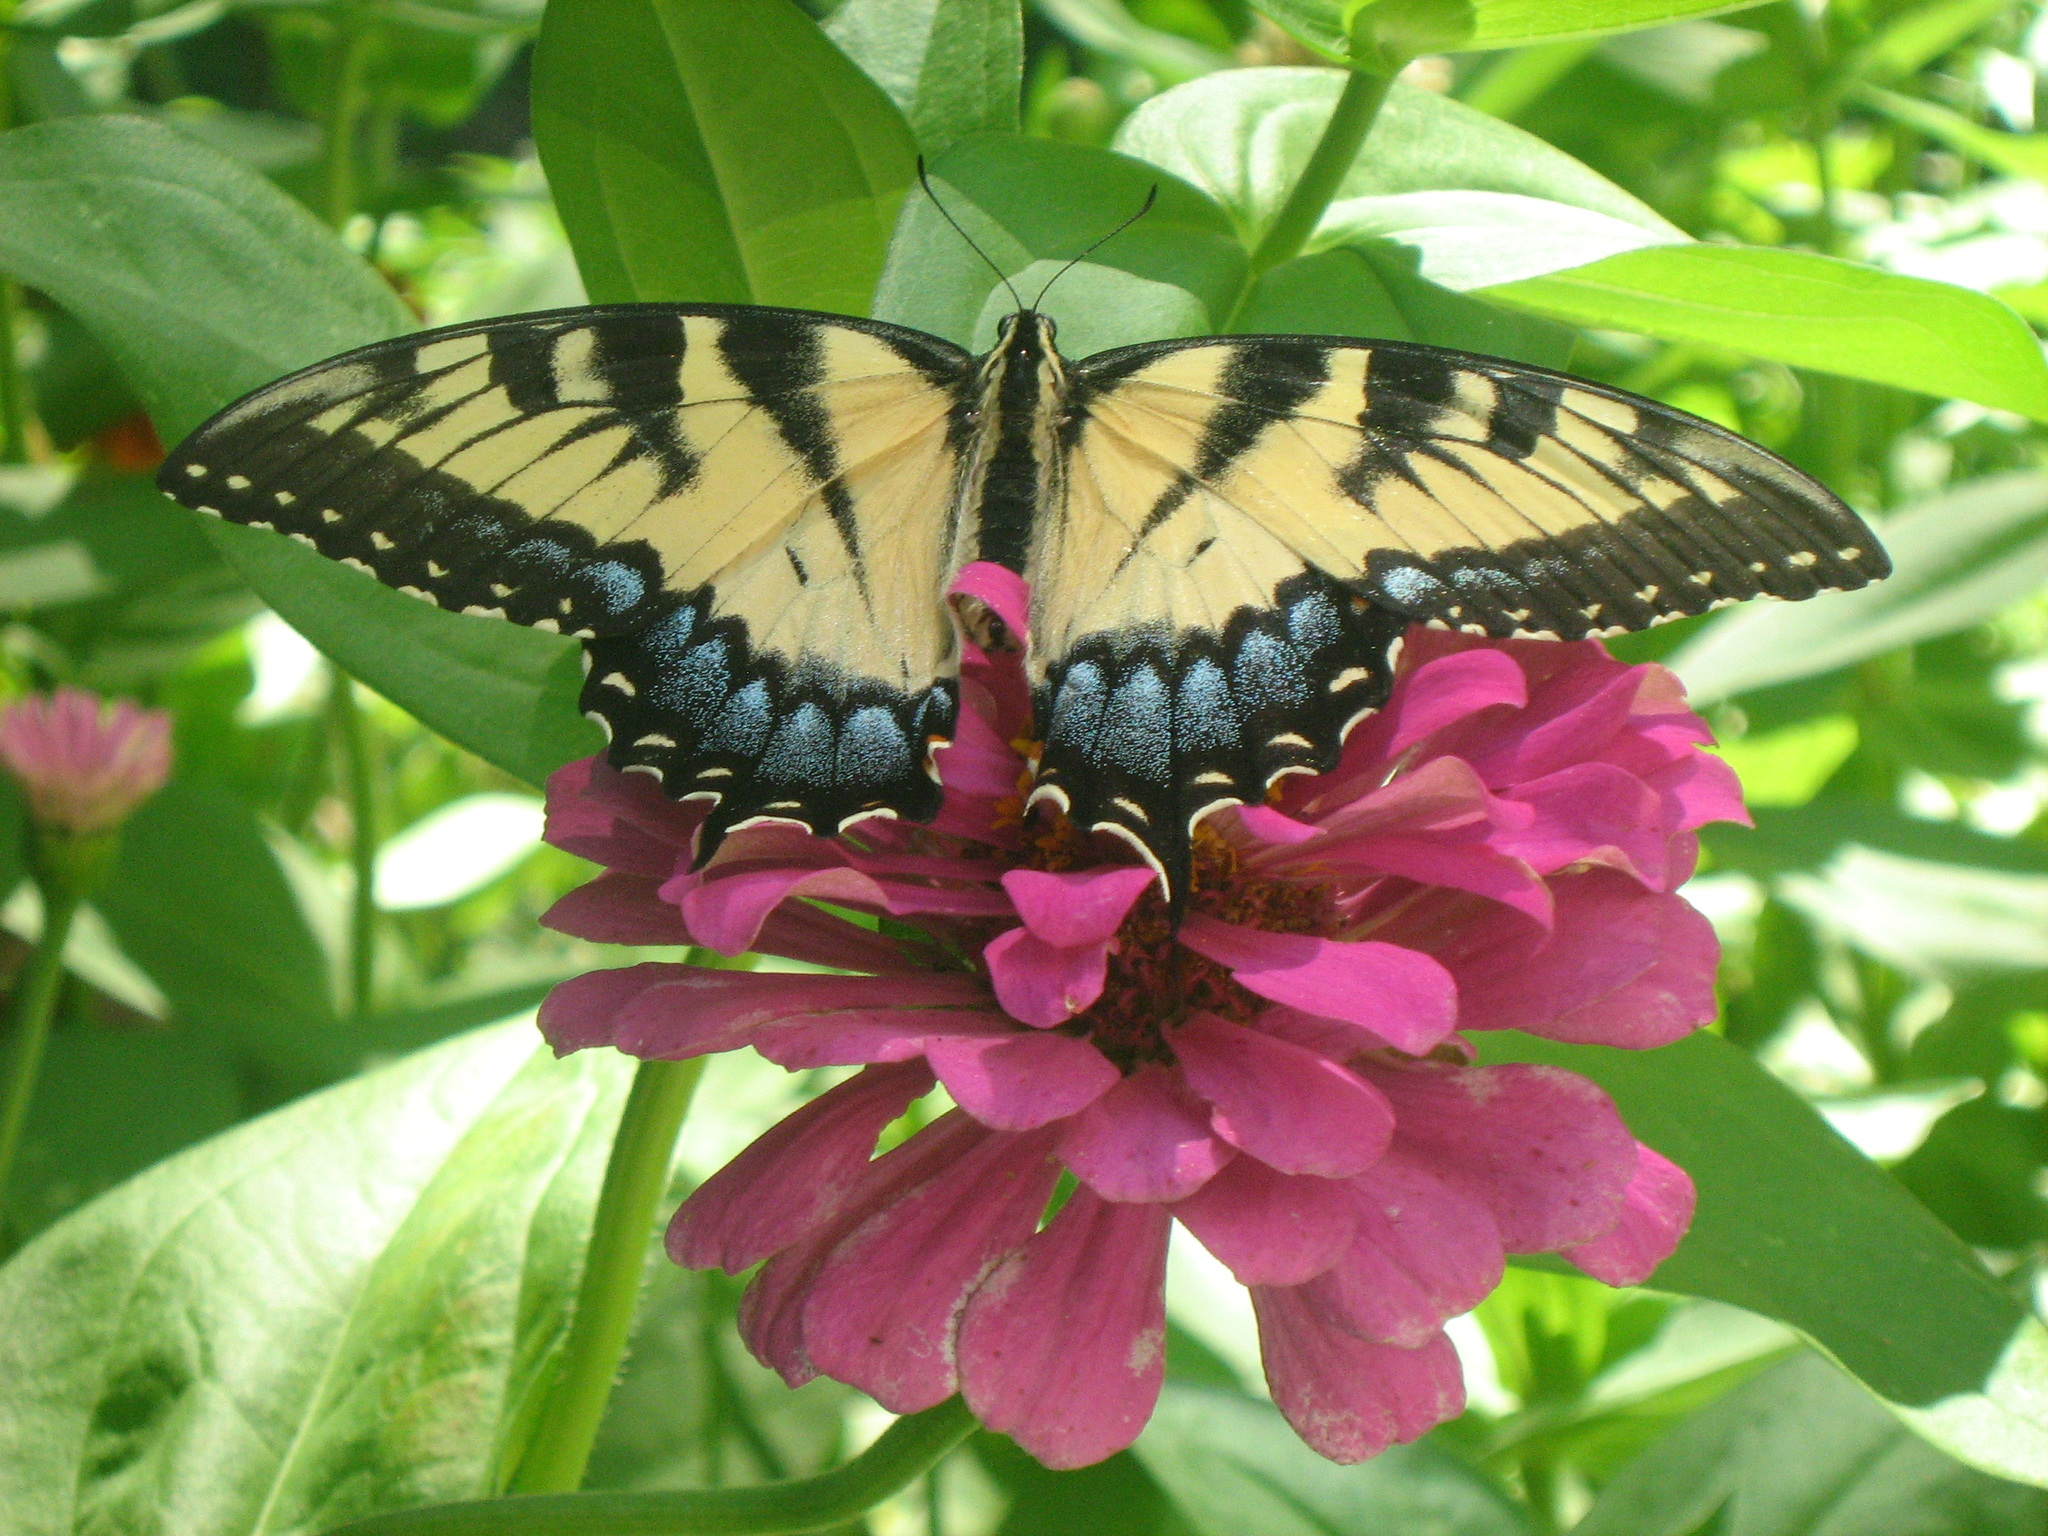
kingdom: Animalia
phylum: Arthropoda
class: Insecta
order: Lepidoptera
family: Papilionidae
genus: Papilio
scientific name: Papilio glaucus
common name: Tiger swallowtail
